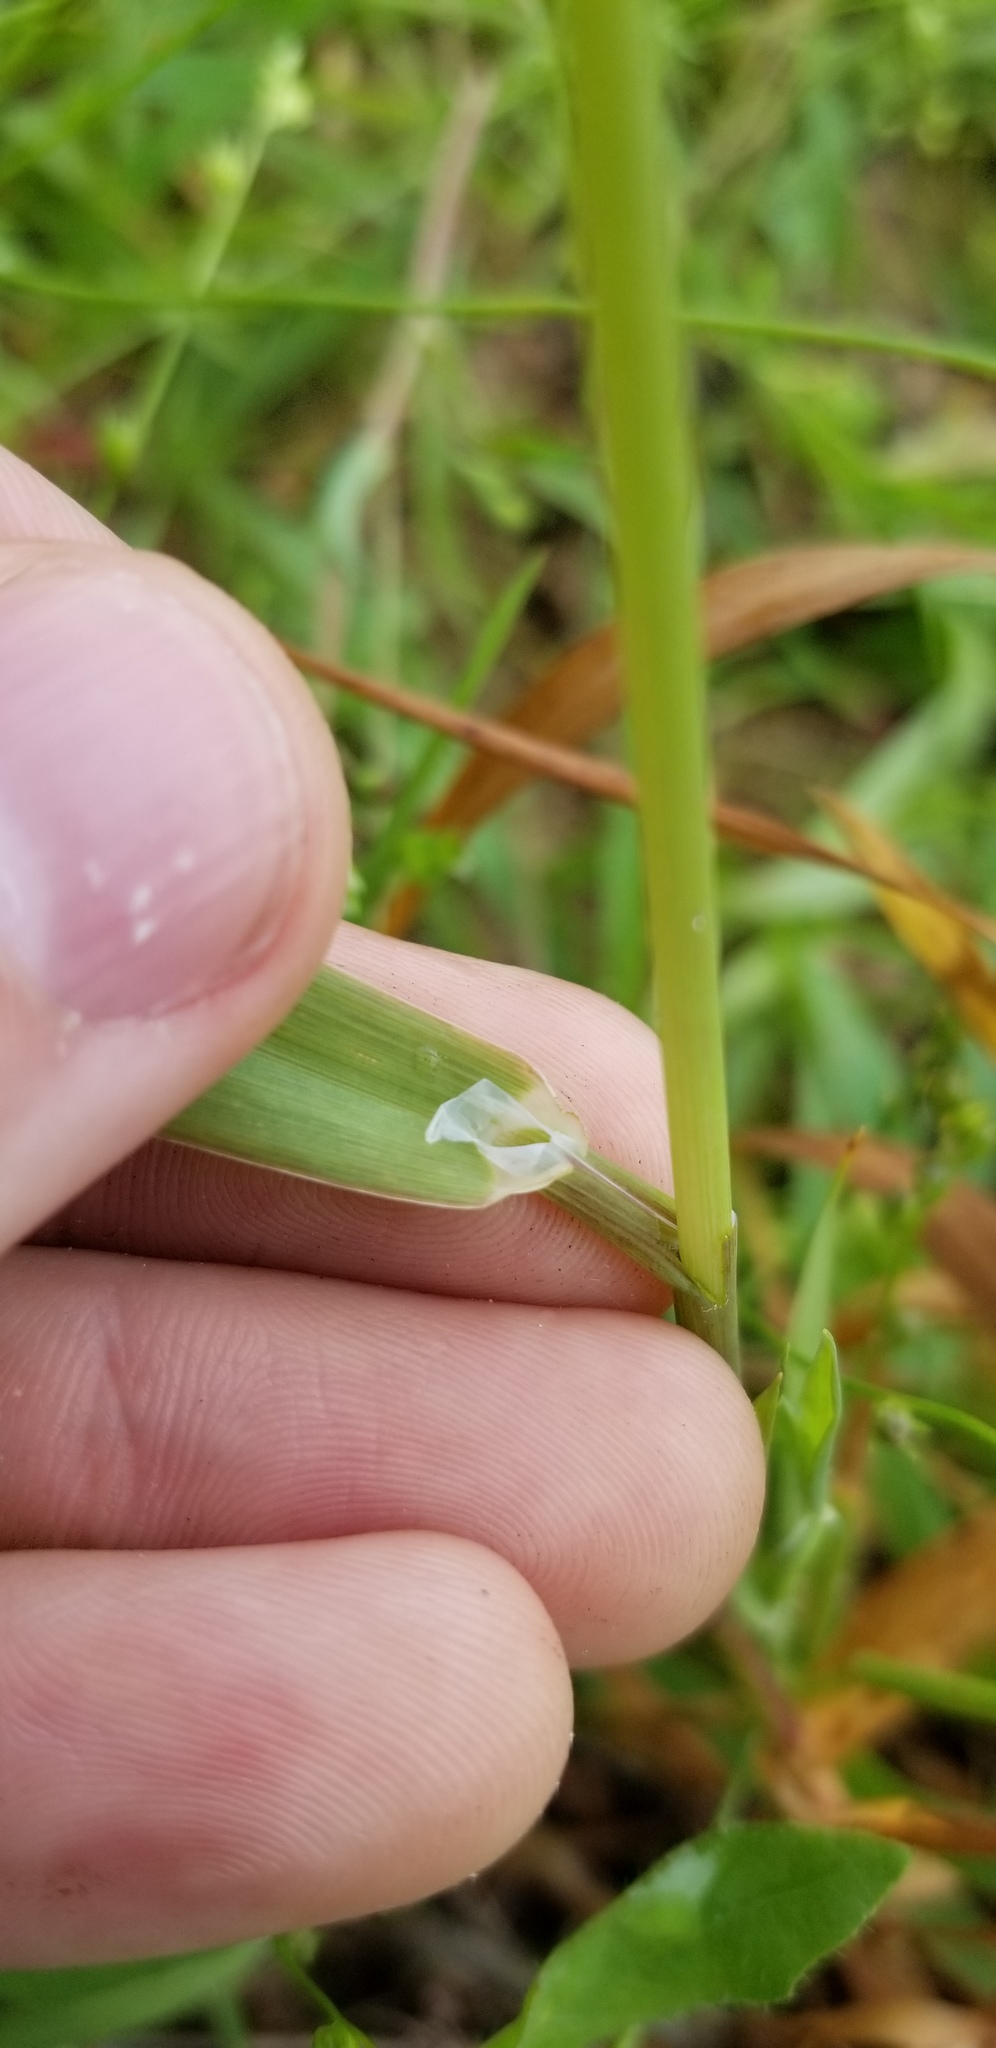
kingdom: Plantae
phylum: Tracheophyta
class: Liliopsida
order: Poales
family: Poaceae
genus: Phalaris
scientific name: Phalaris caroliniana
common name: May grass
